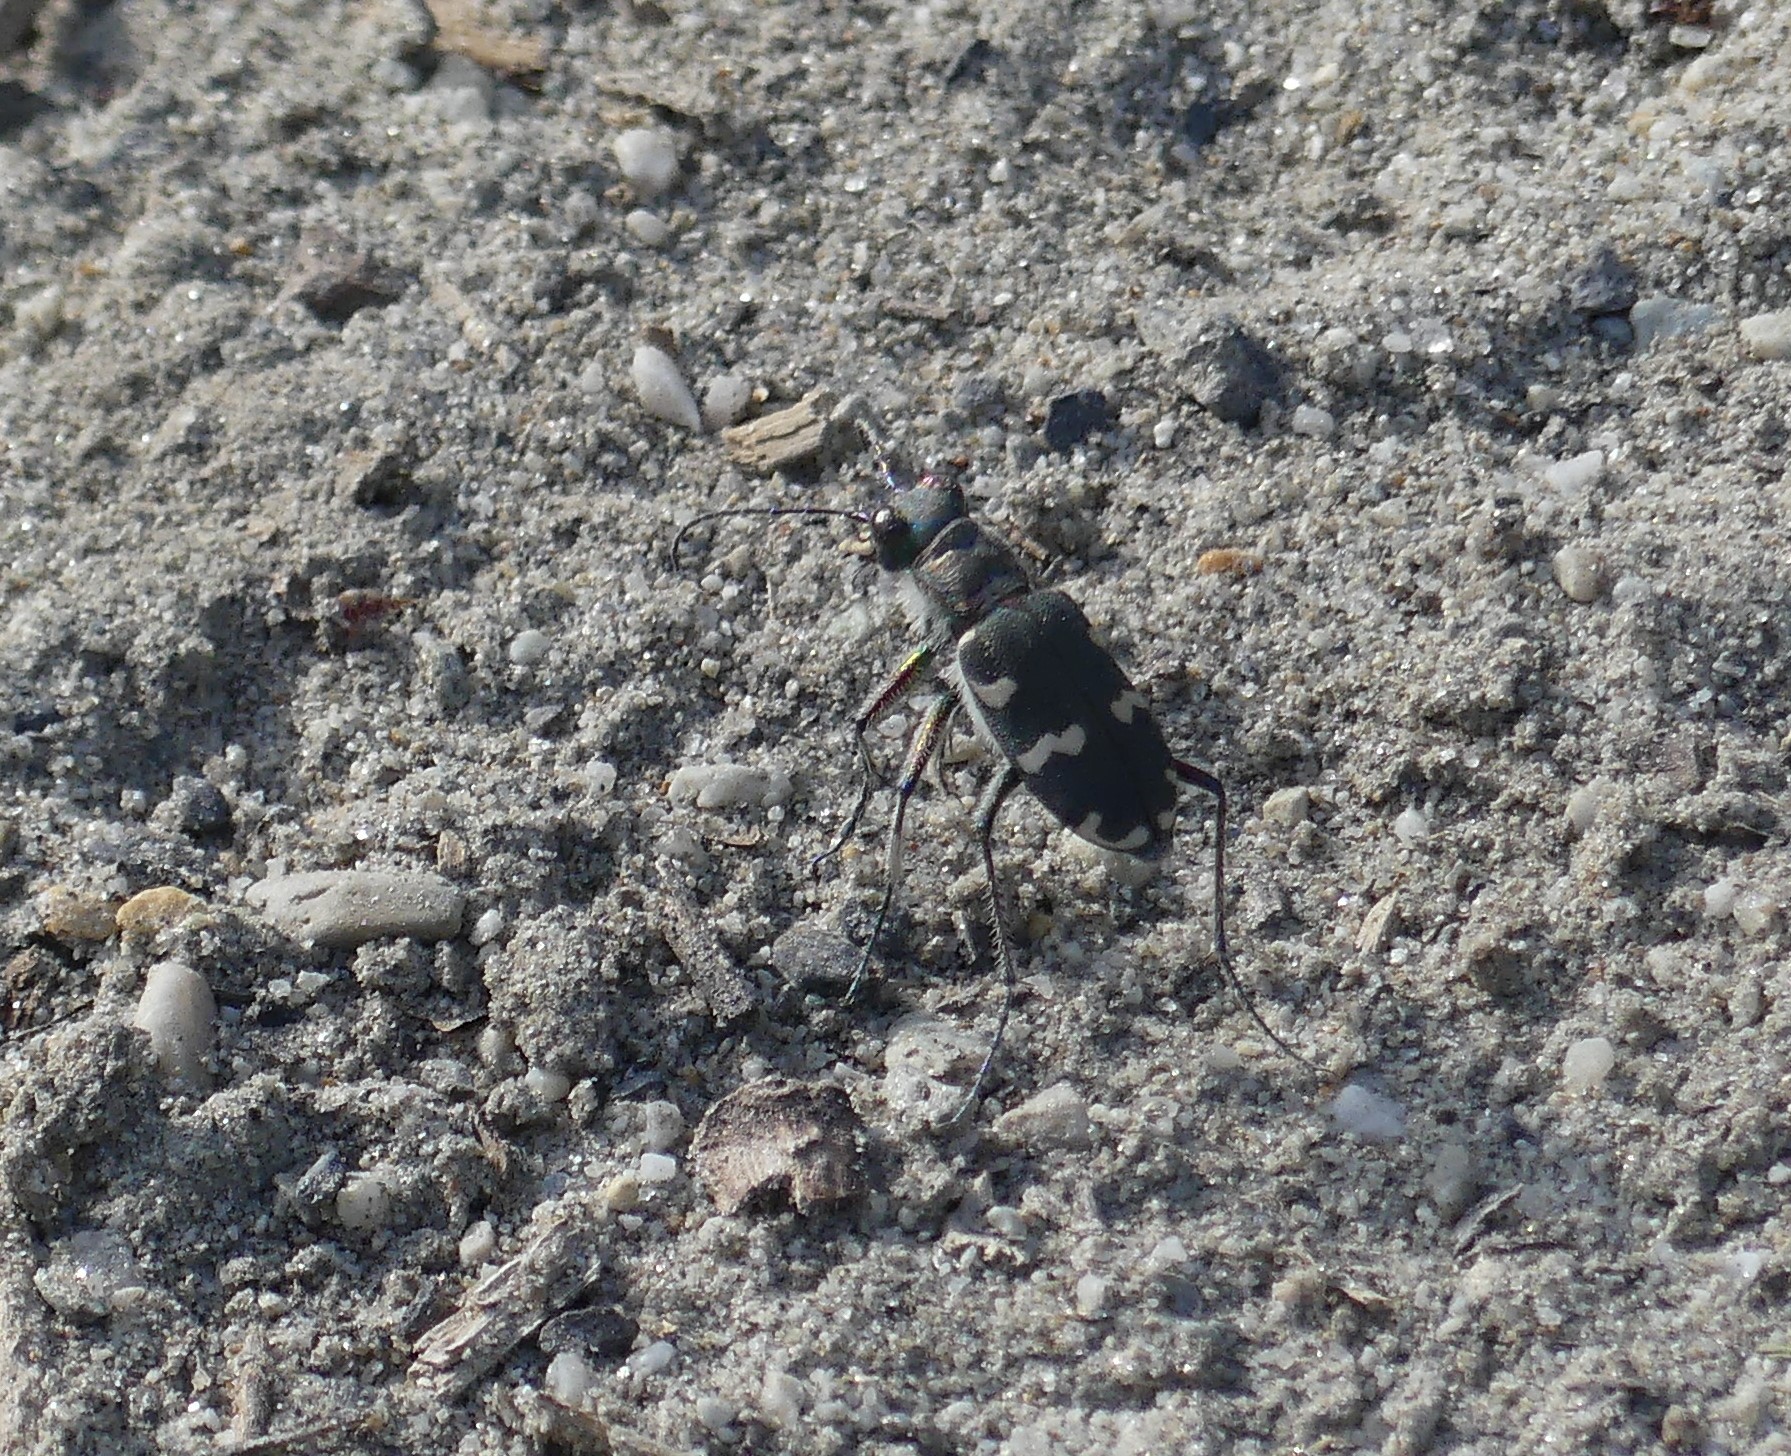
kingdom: Animalia
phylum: Arthropoda
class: Insecta
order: Coleoptera
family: Carabidae
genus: Cicindela
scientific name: Cicindela hybrida
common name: Northern dune tiger beetle
